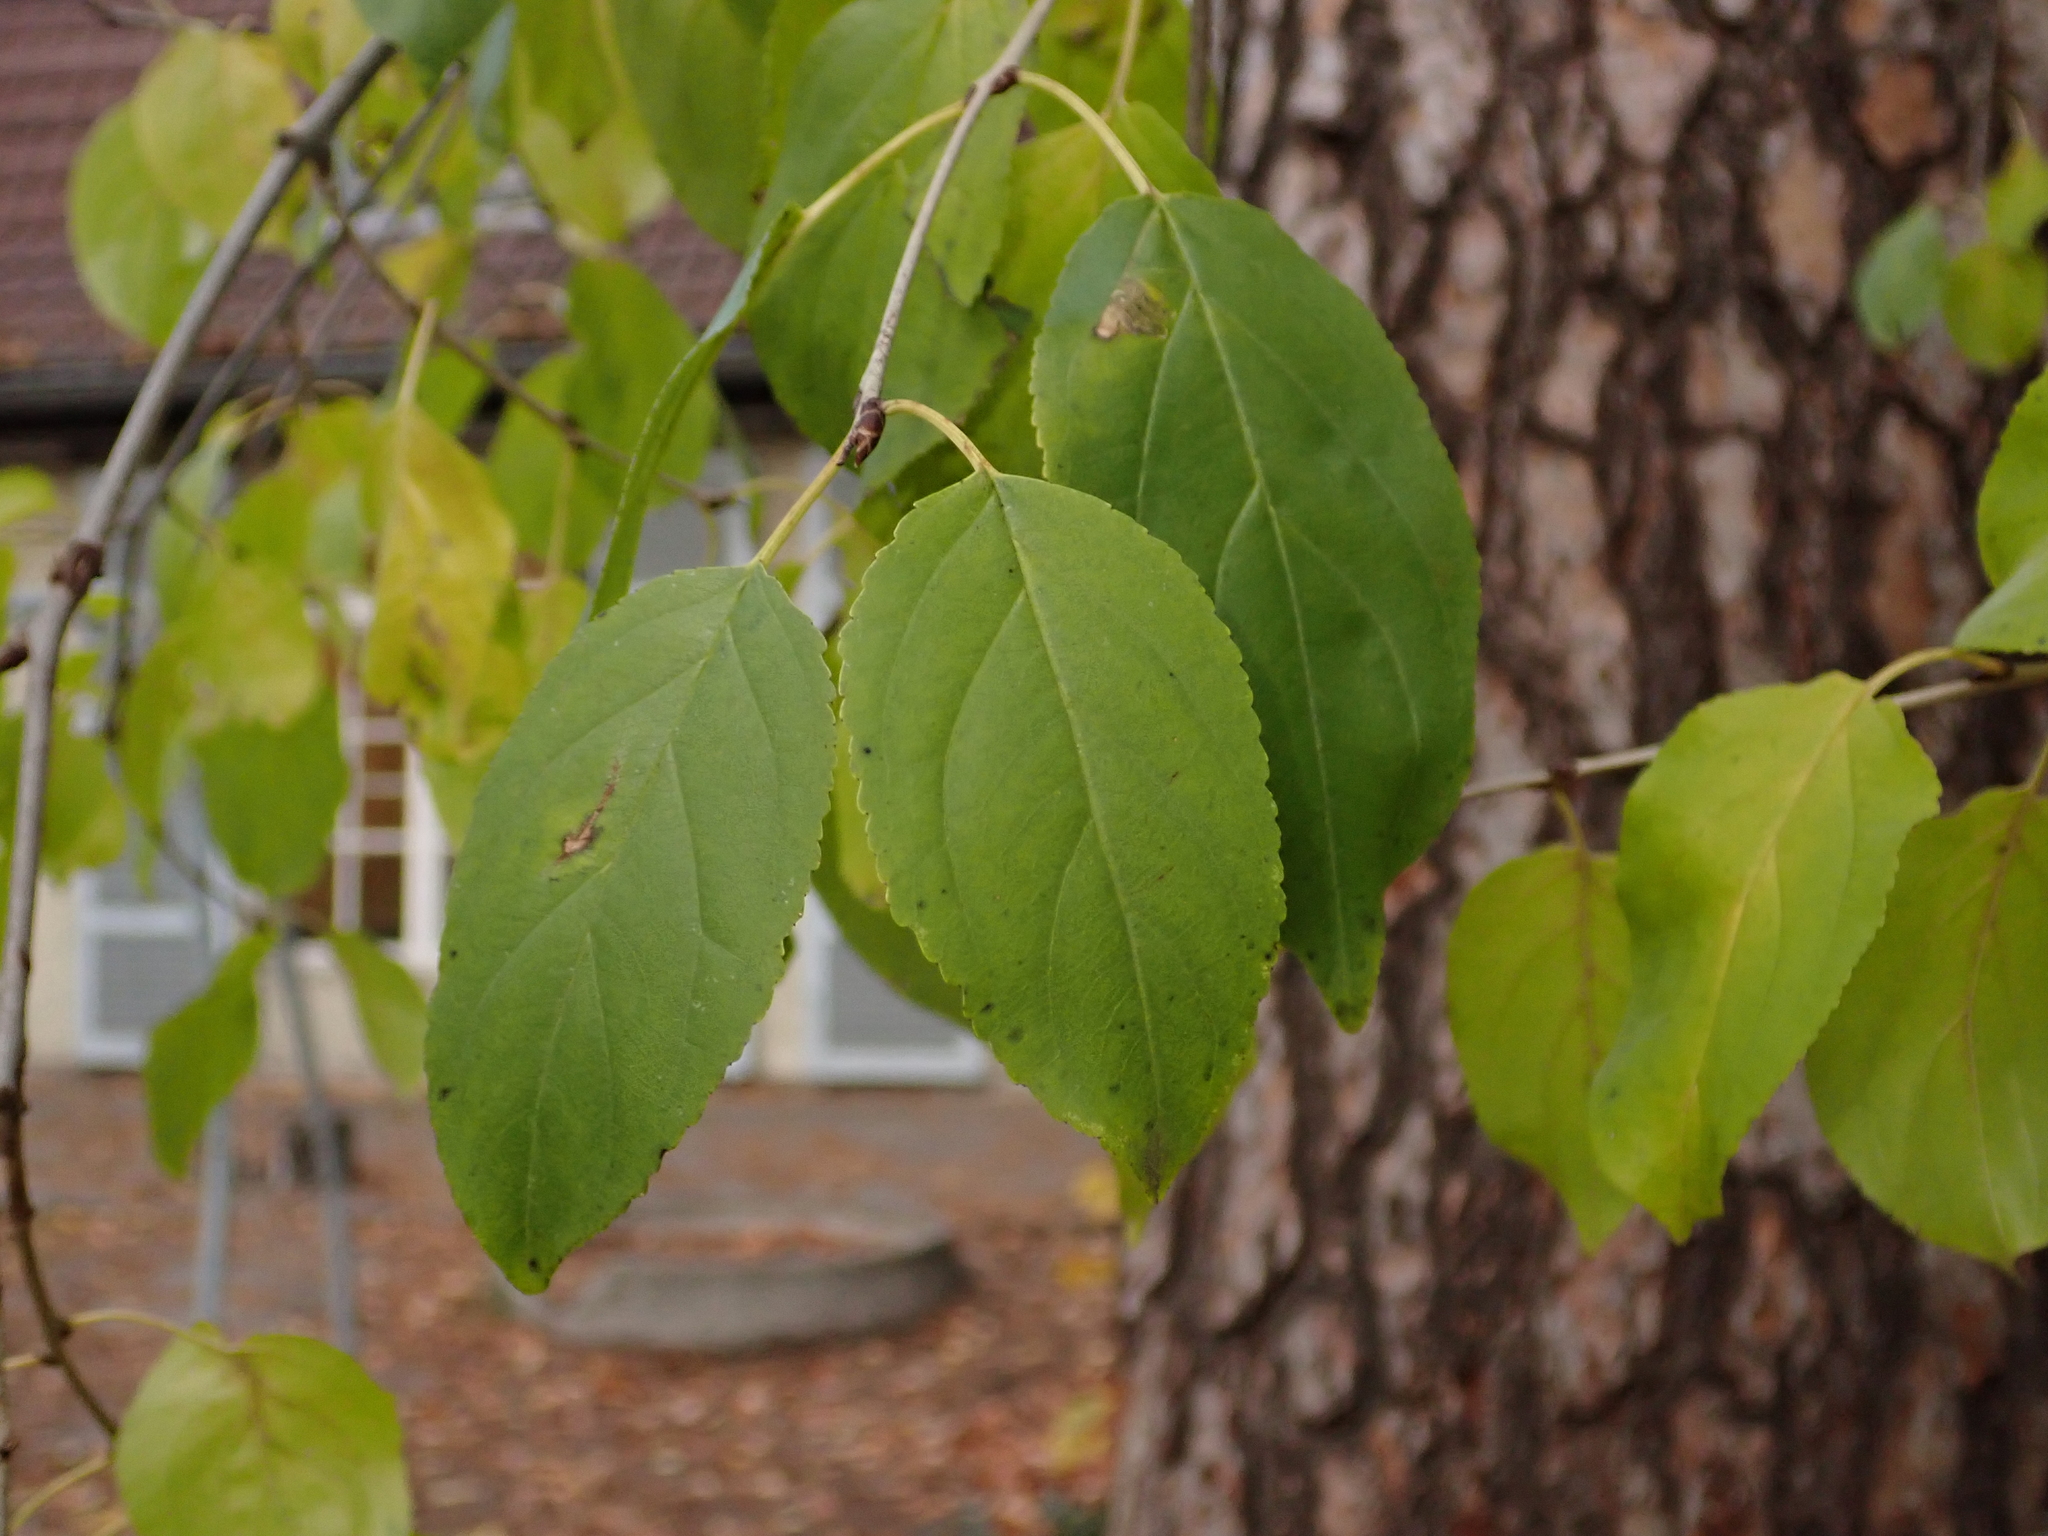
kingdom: Plantae
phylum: Tracheophyta
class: Magnoliopsida
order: Rosales
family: Rhamnaceae
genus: Rhamnus
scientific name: Rhamnus cathartica
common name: Common buckthorn
